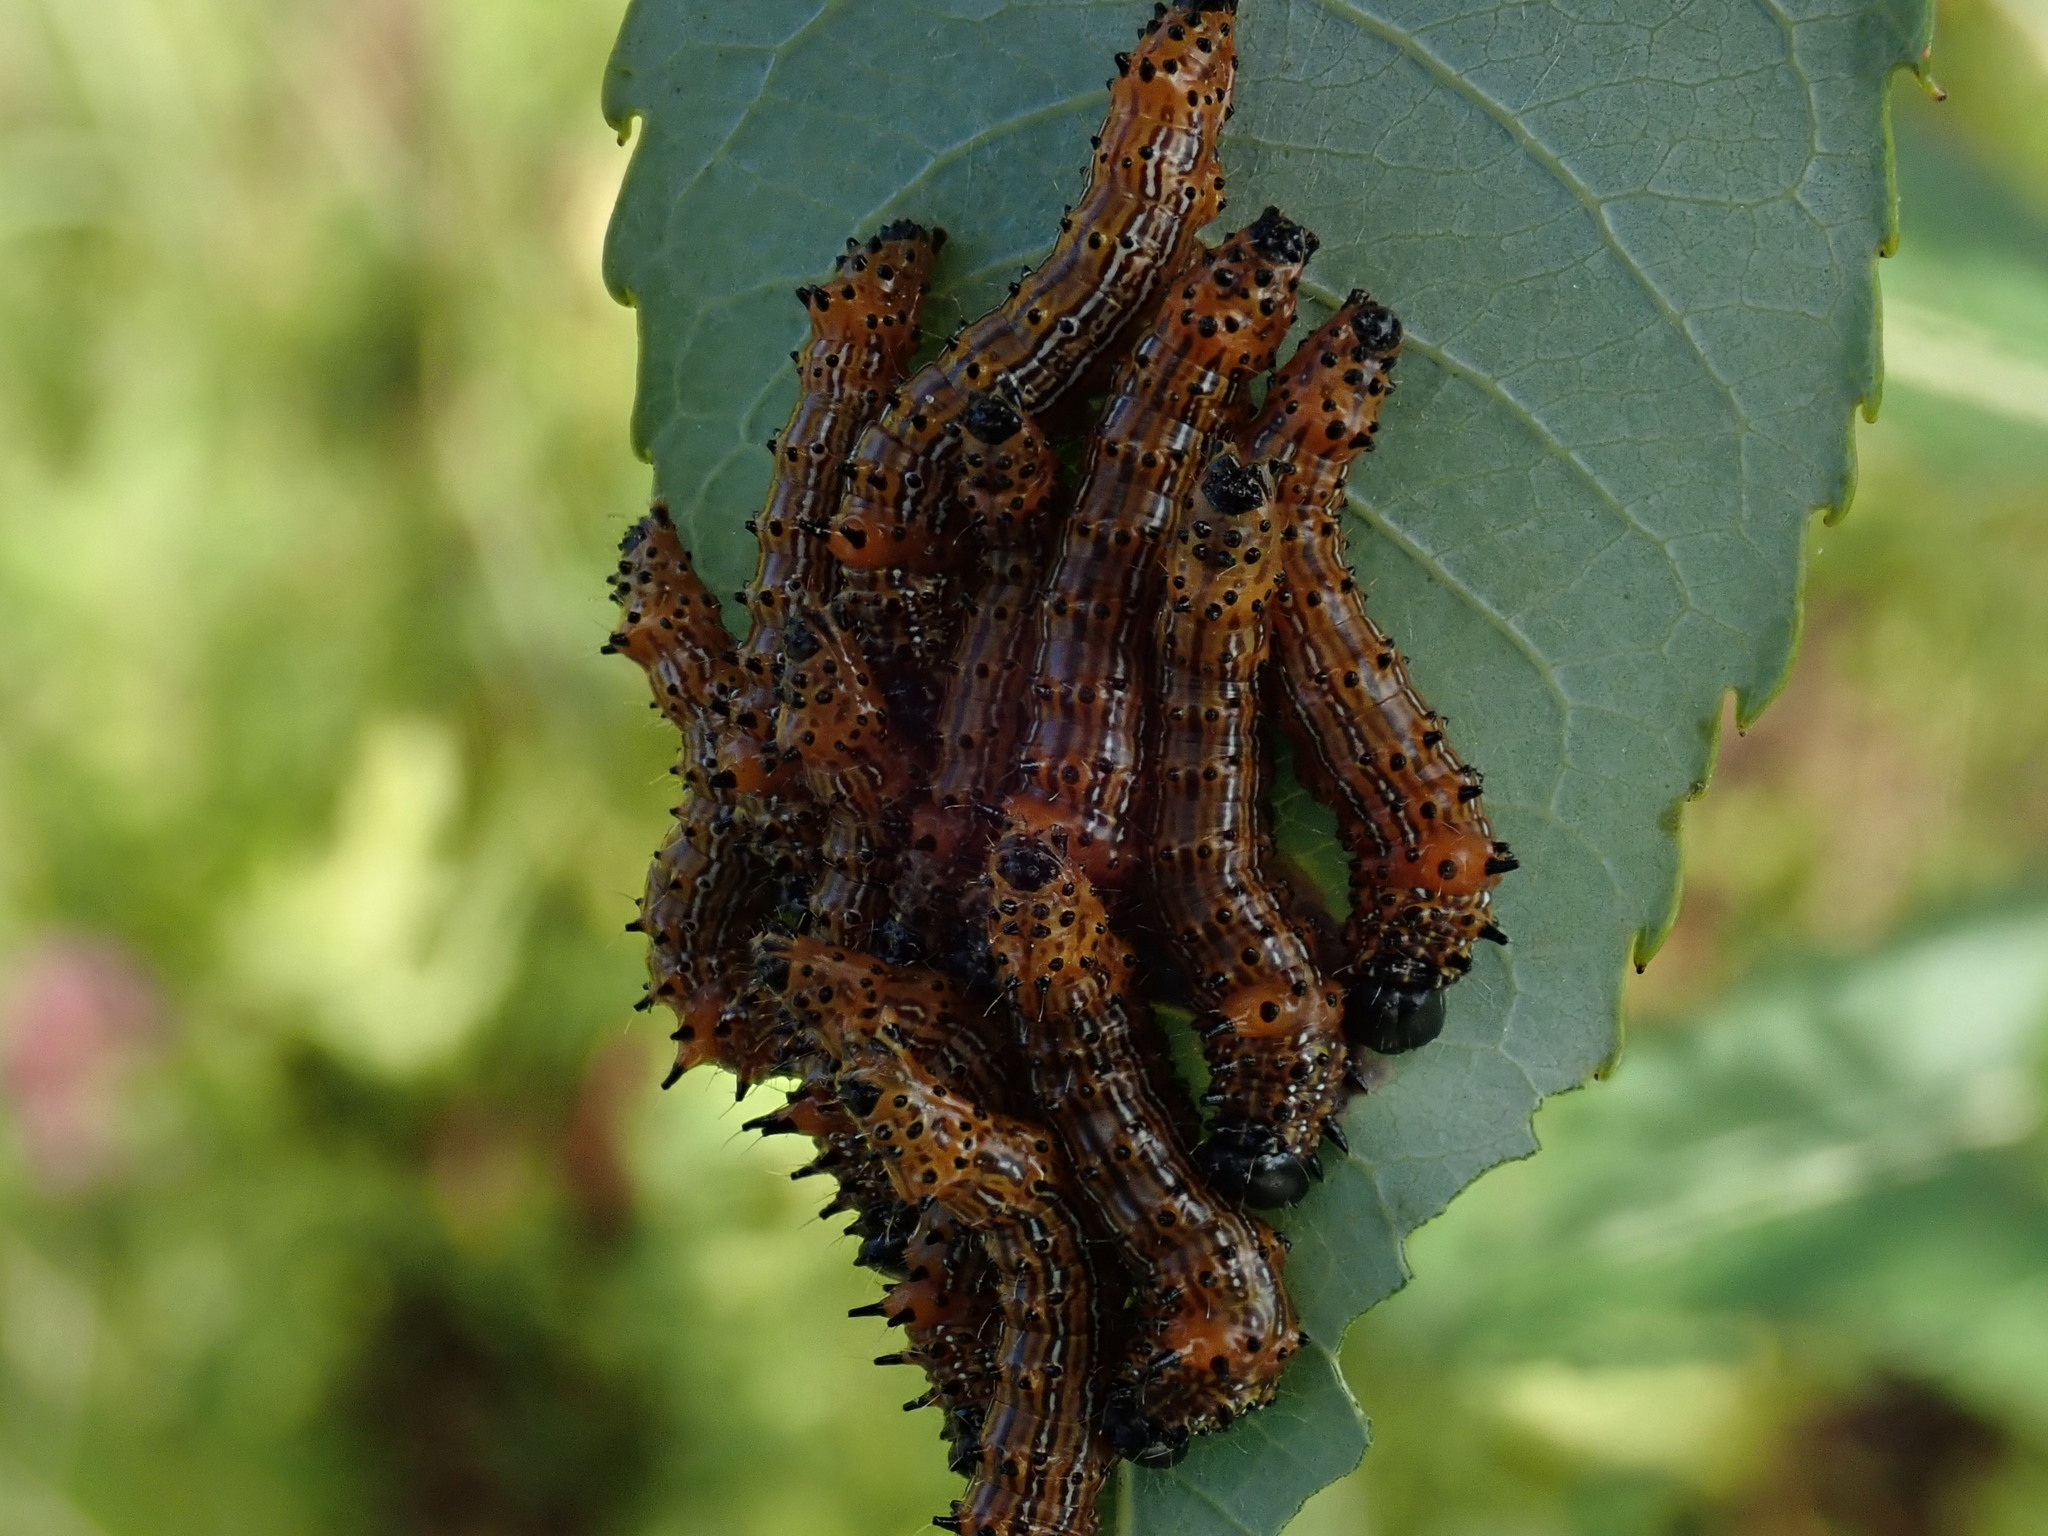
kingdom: Animalia
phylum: Arthropoda
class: Insecta
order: Lepidoptera
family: Notodontidae
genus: Schizura
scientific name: Schizura
